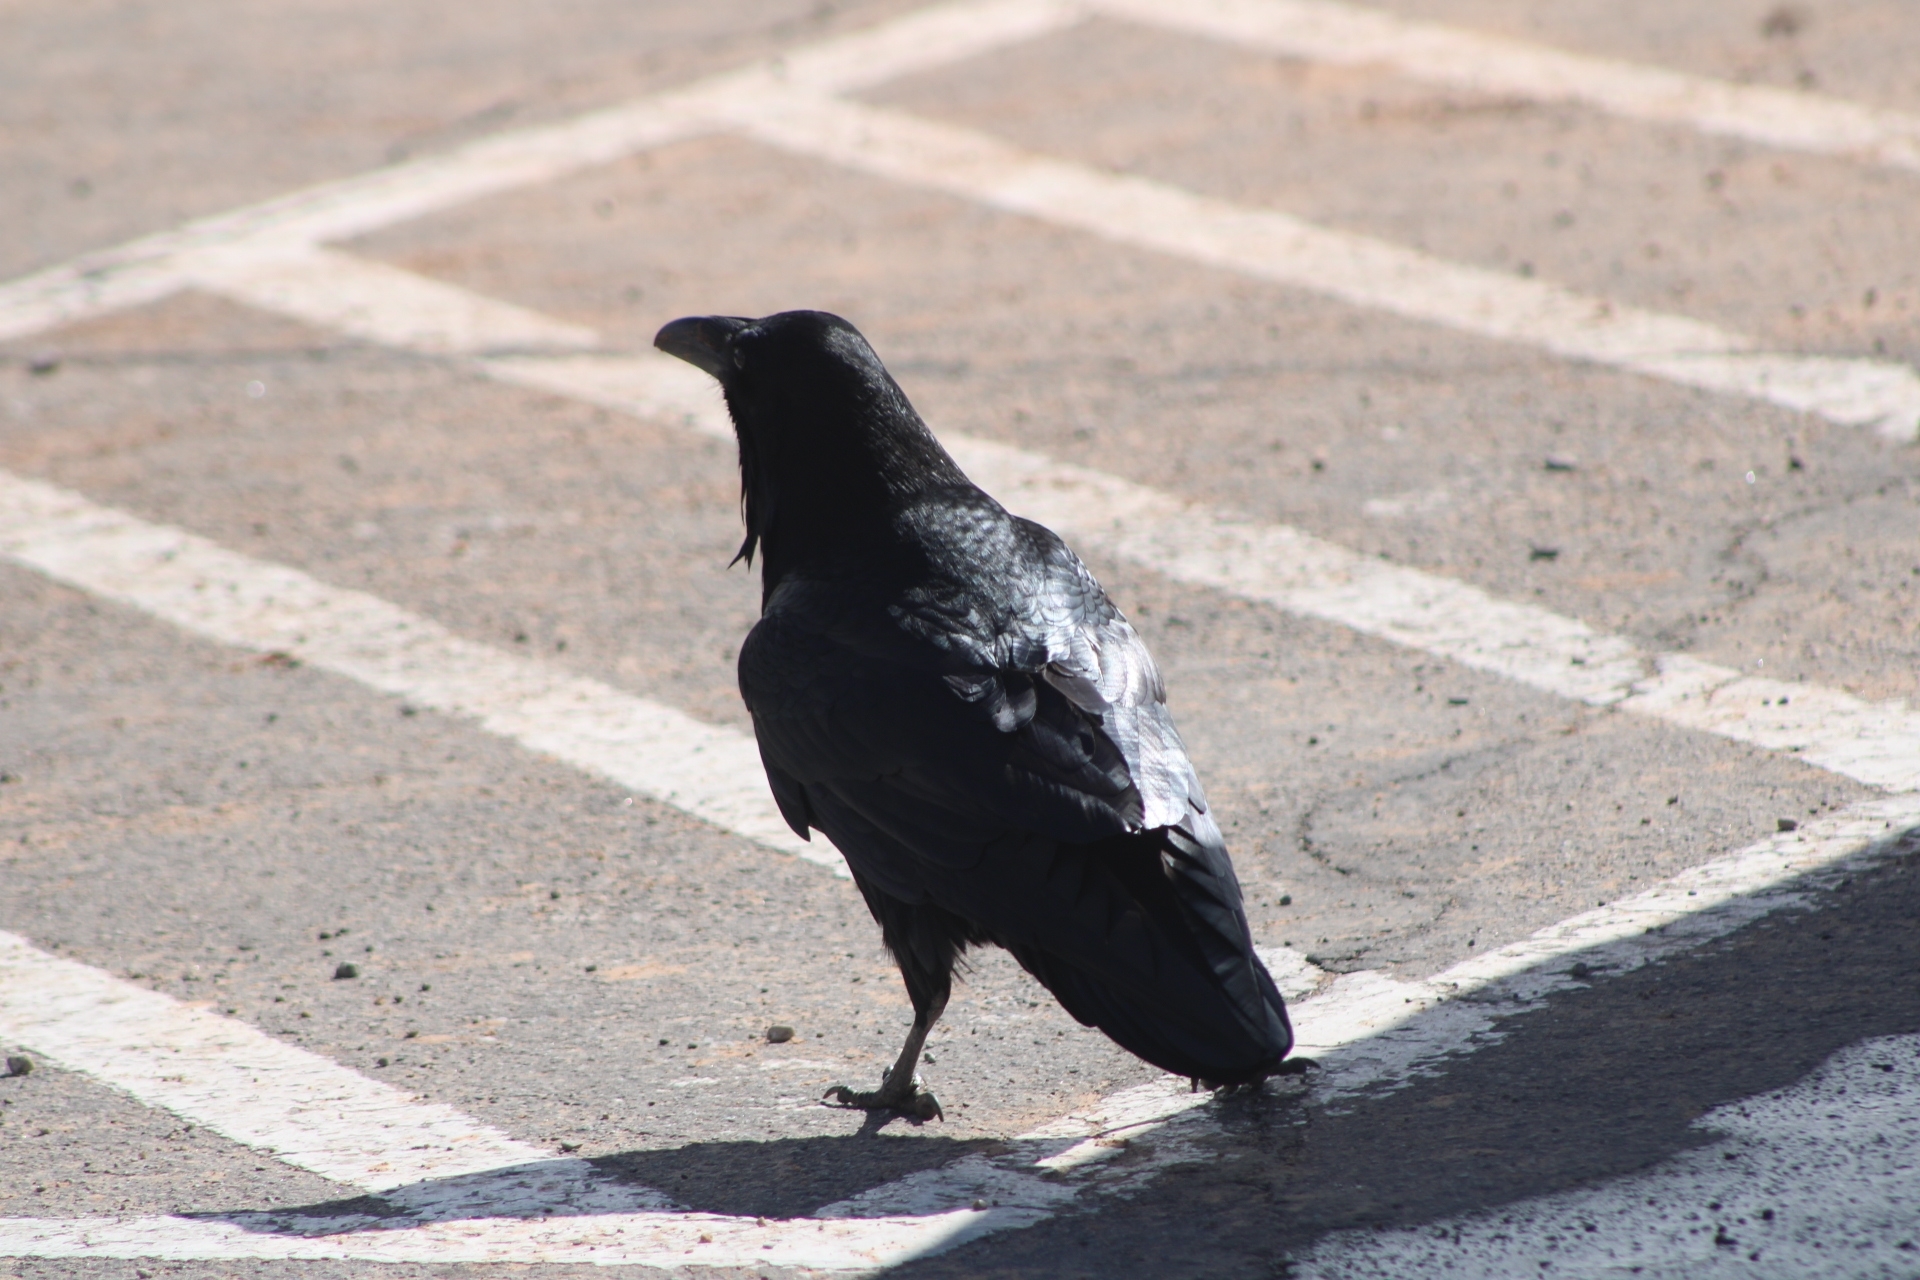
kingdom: Animalia
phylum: Chordata
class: Aves
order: Passeriformes
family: Corvidae
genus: Corvus
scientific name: Corvus corax
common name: Common raven
